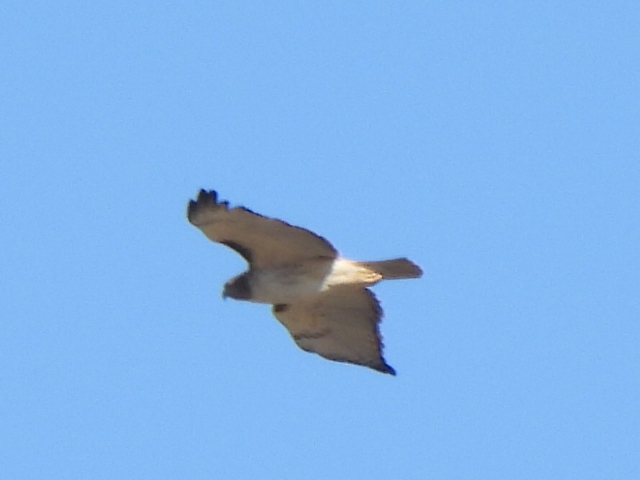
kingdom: Animalia
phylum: Chordata
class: Aves
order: Accipitriformes
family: Accipitridae
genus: Buteo
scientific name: Buteo jamaicensis
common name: Red-tailed hawk
